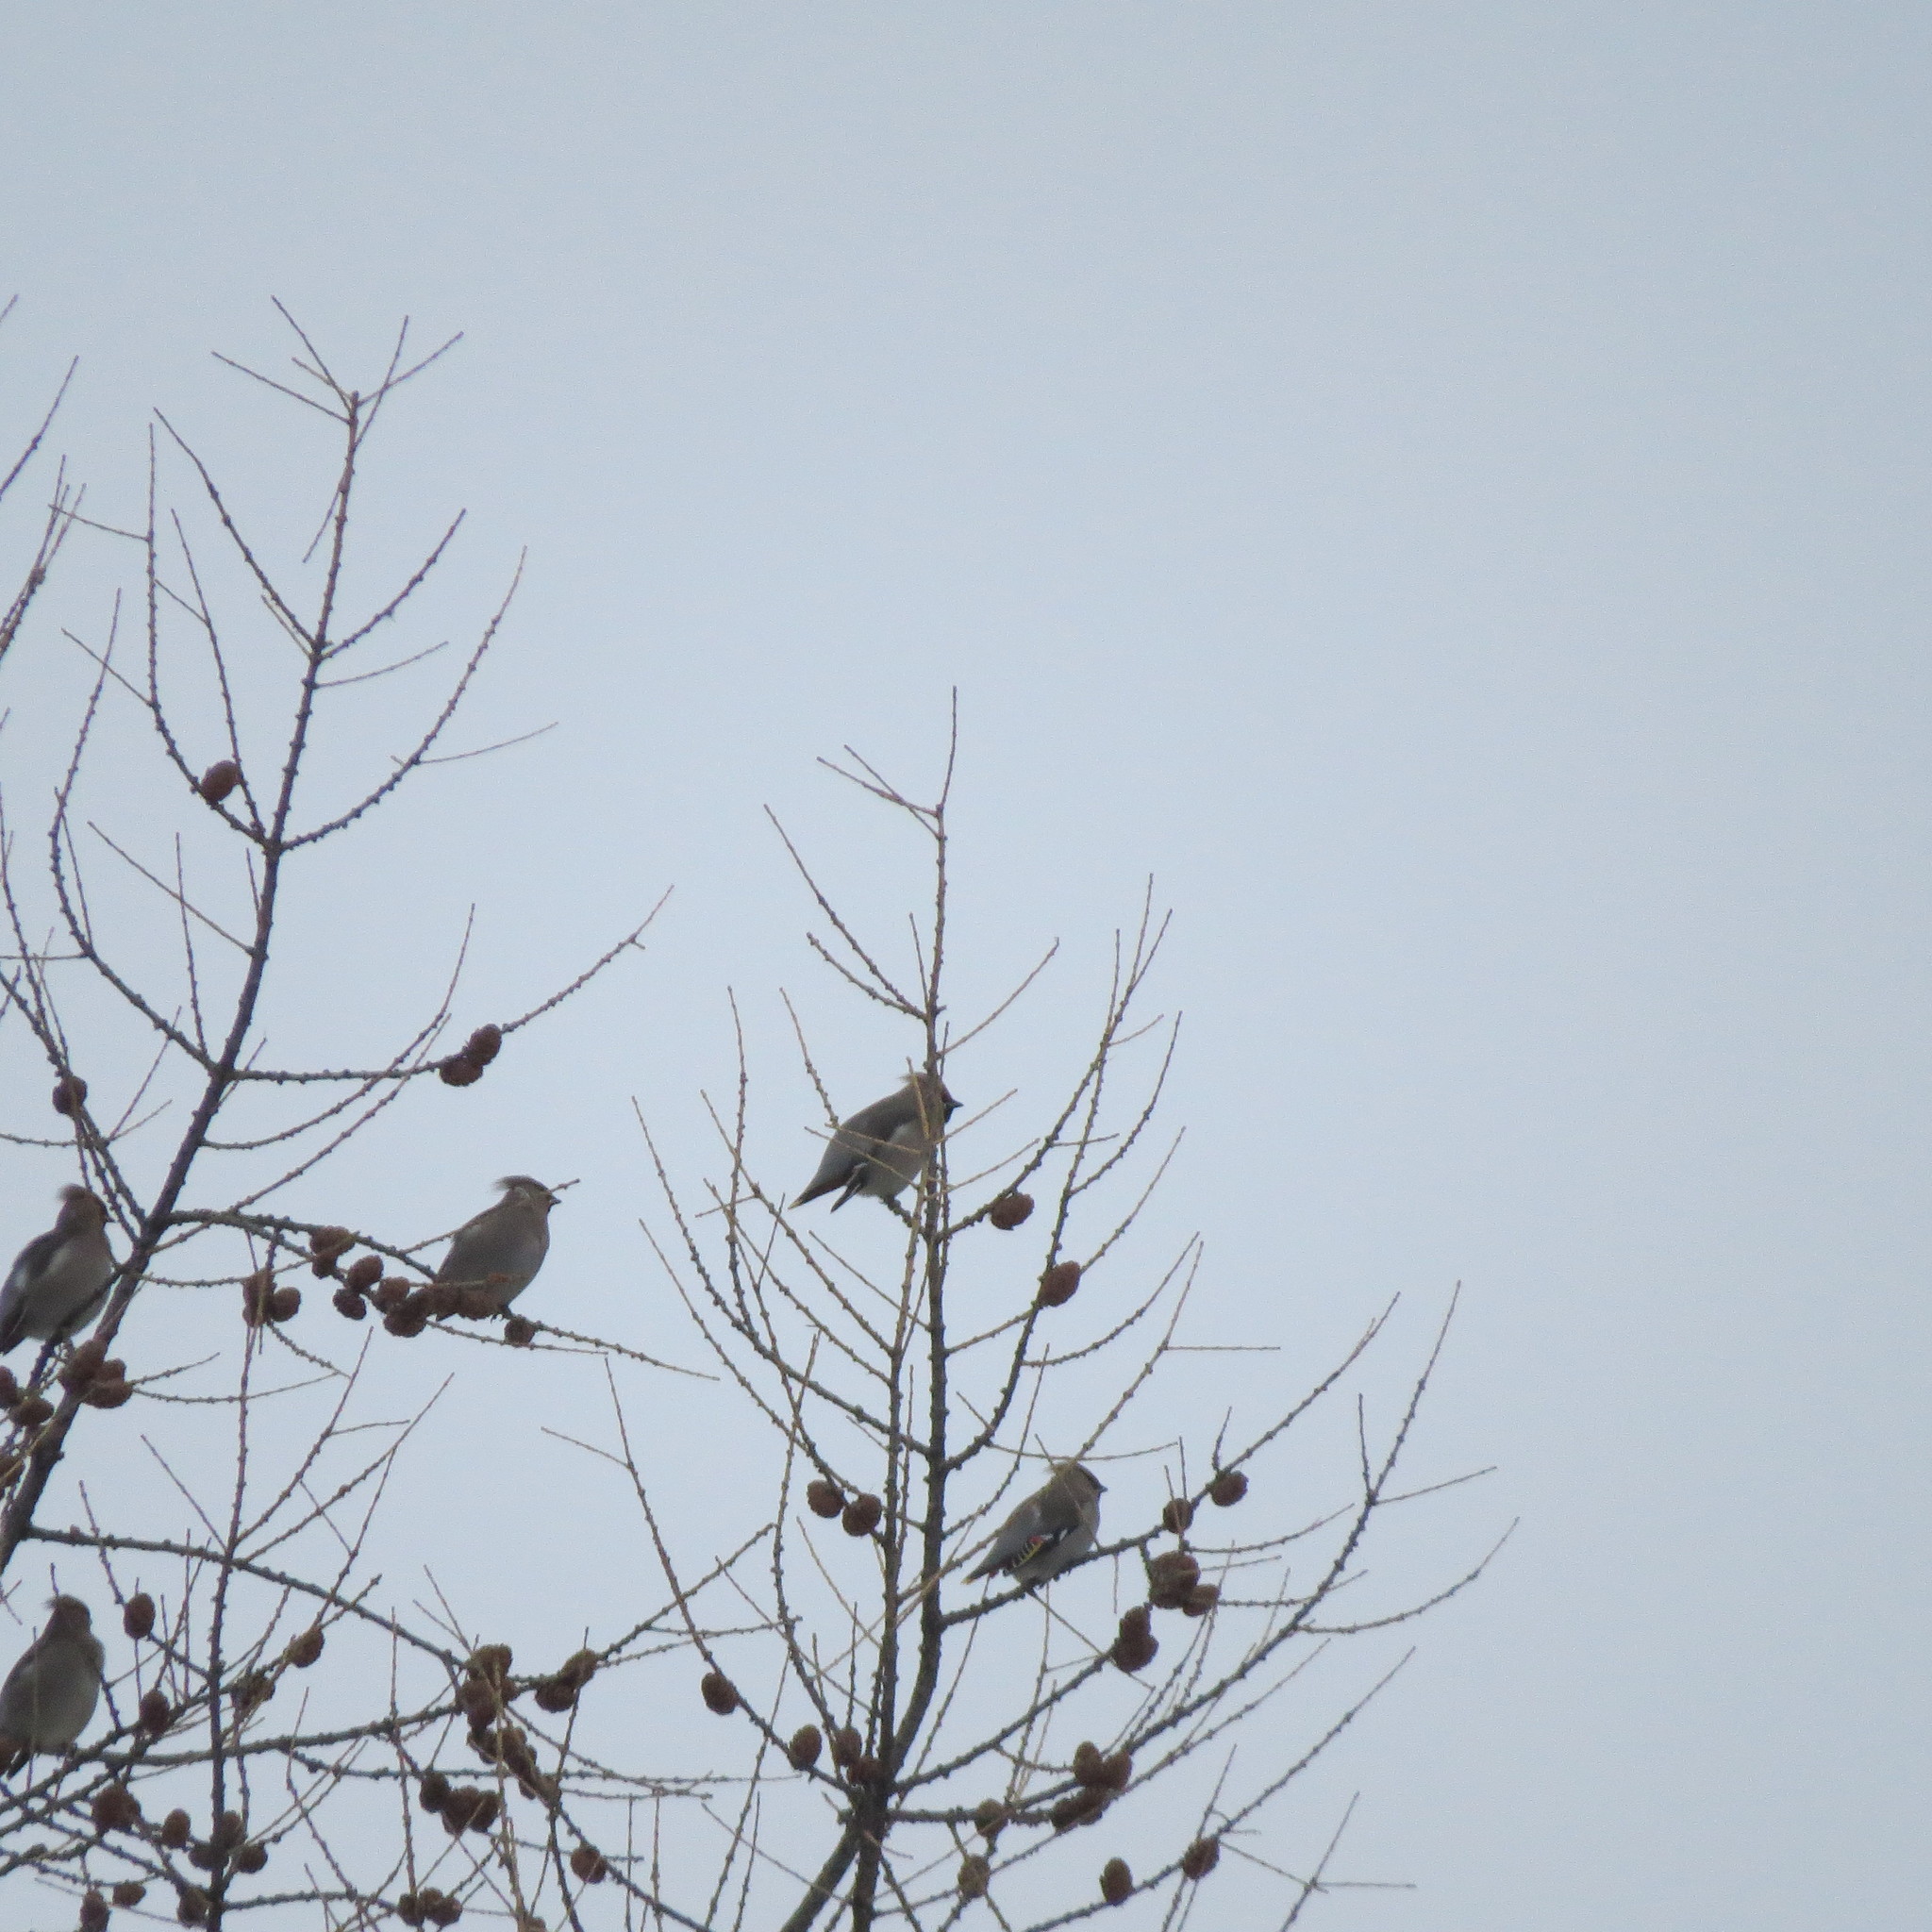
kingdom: Animalia
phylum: Chordata
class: Aves
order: Passeriformes
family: Bombycillidae
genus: Bombycilla
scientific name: Bombycilla garrulus
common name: Bohemian waxwing
